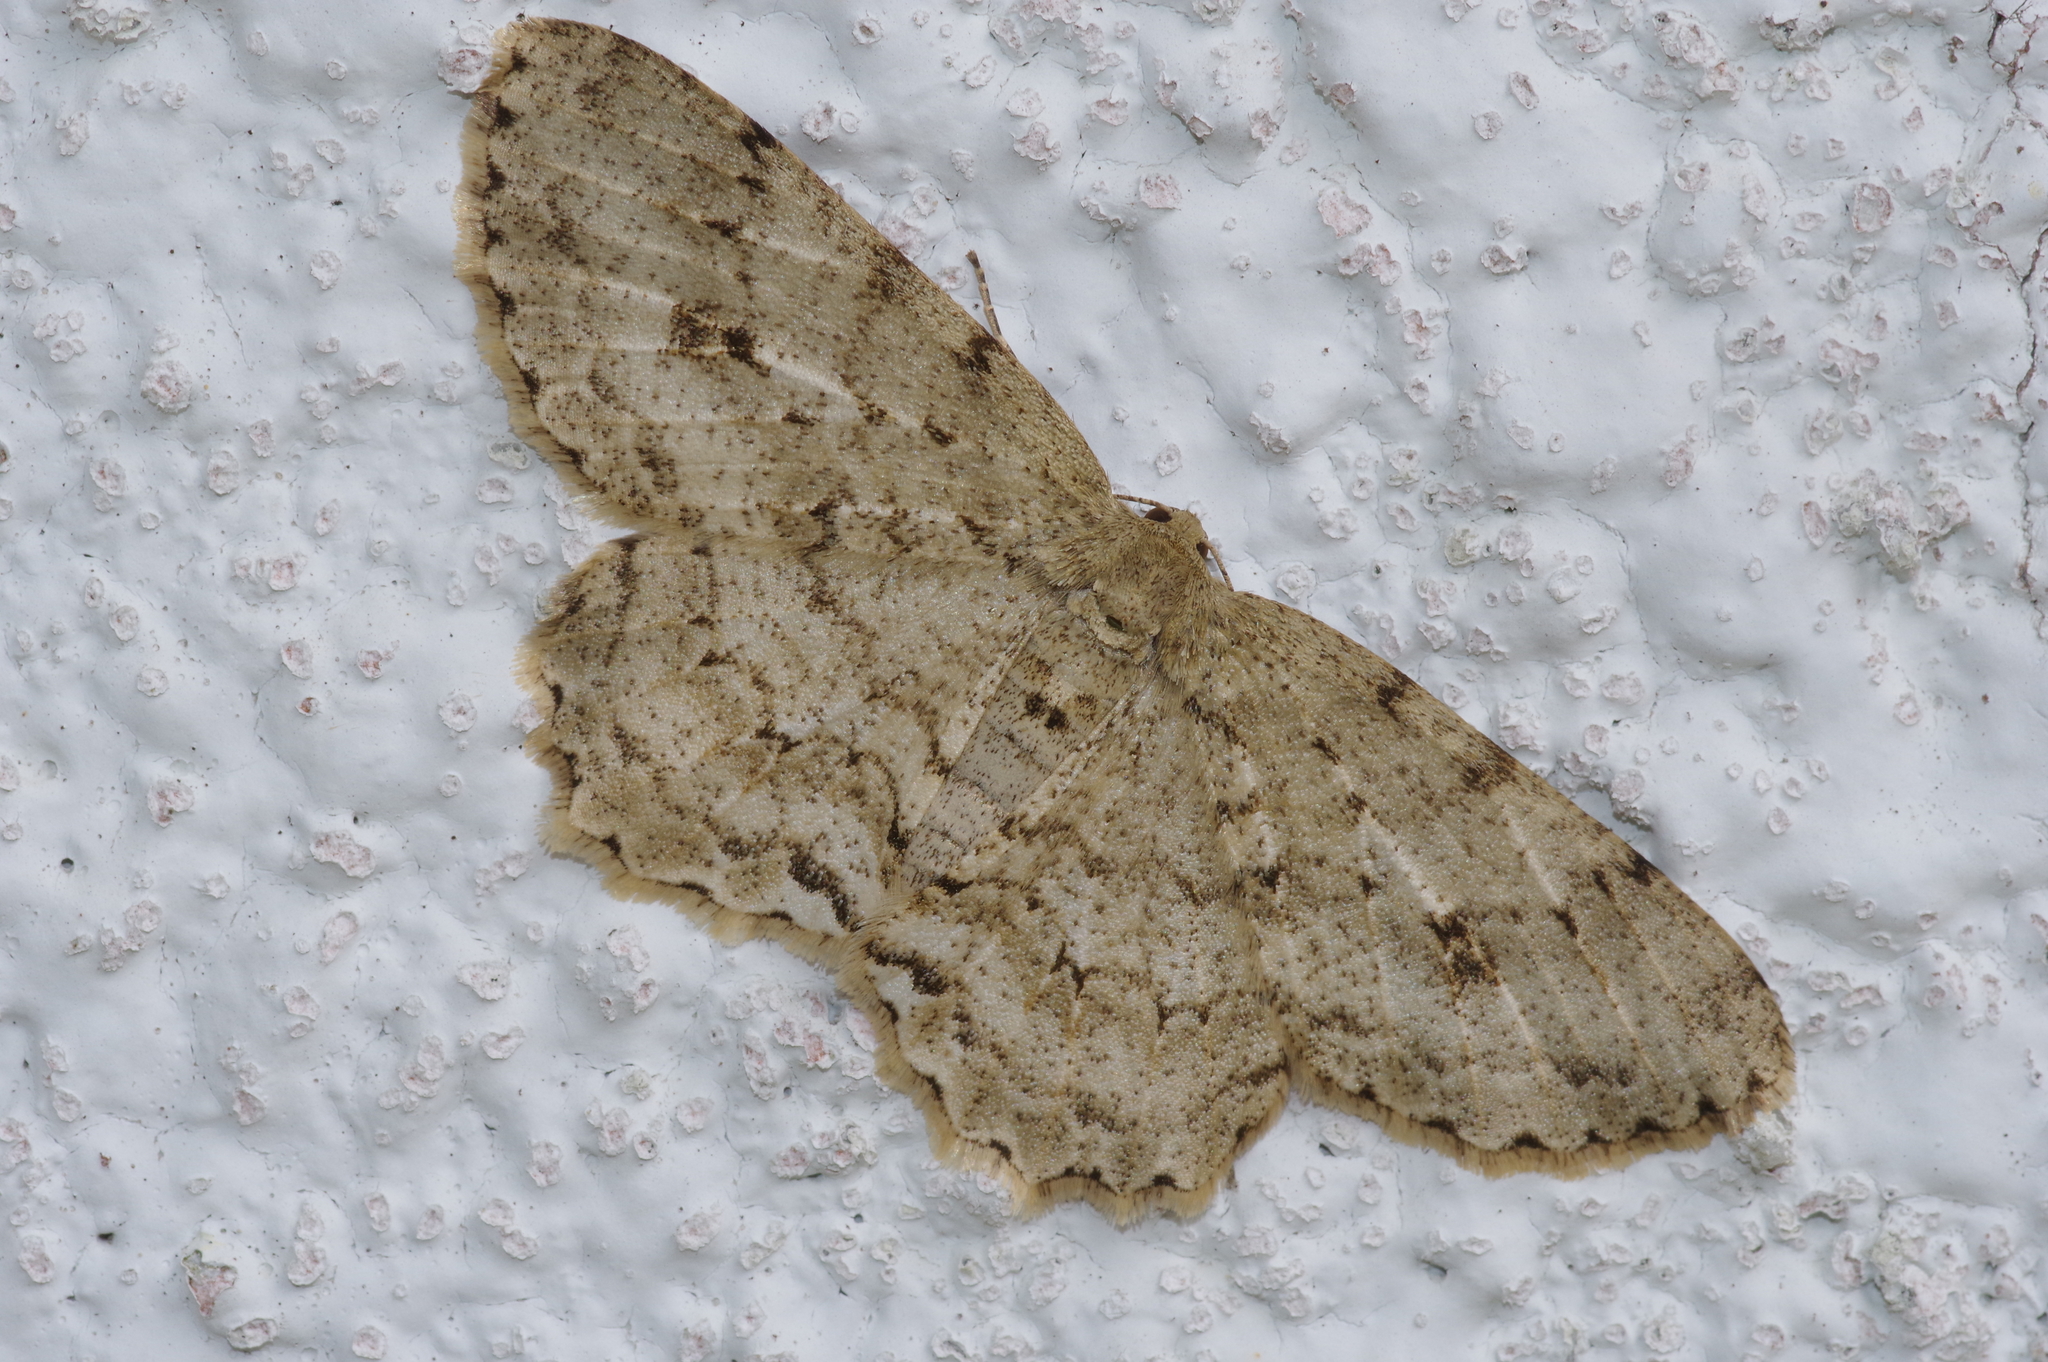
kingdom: Animalia
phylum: Arthropoda
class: Insecta
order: Lepidoptera
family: Geometridae
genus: Ectropis
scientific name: Ectropis excellens
